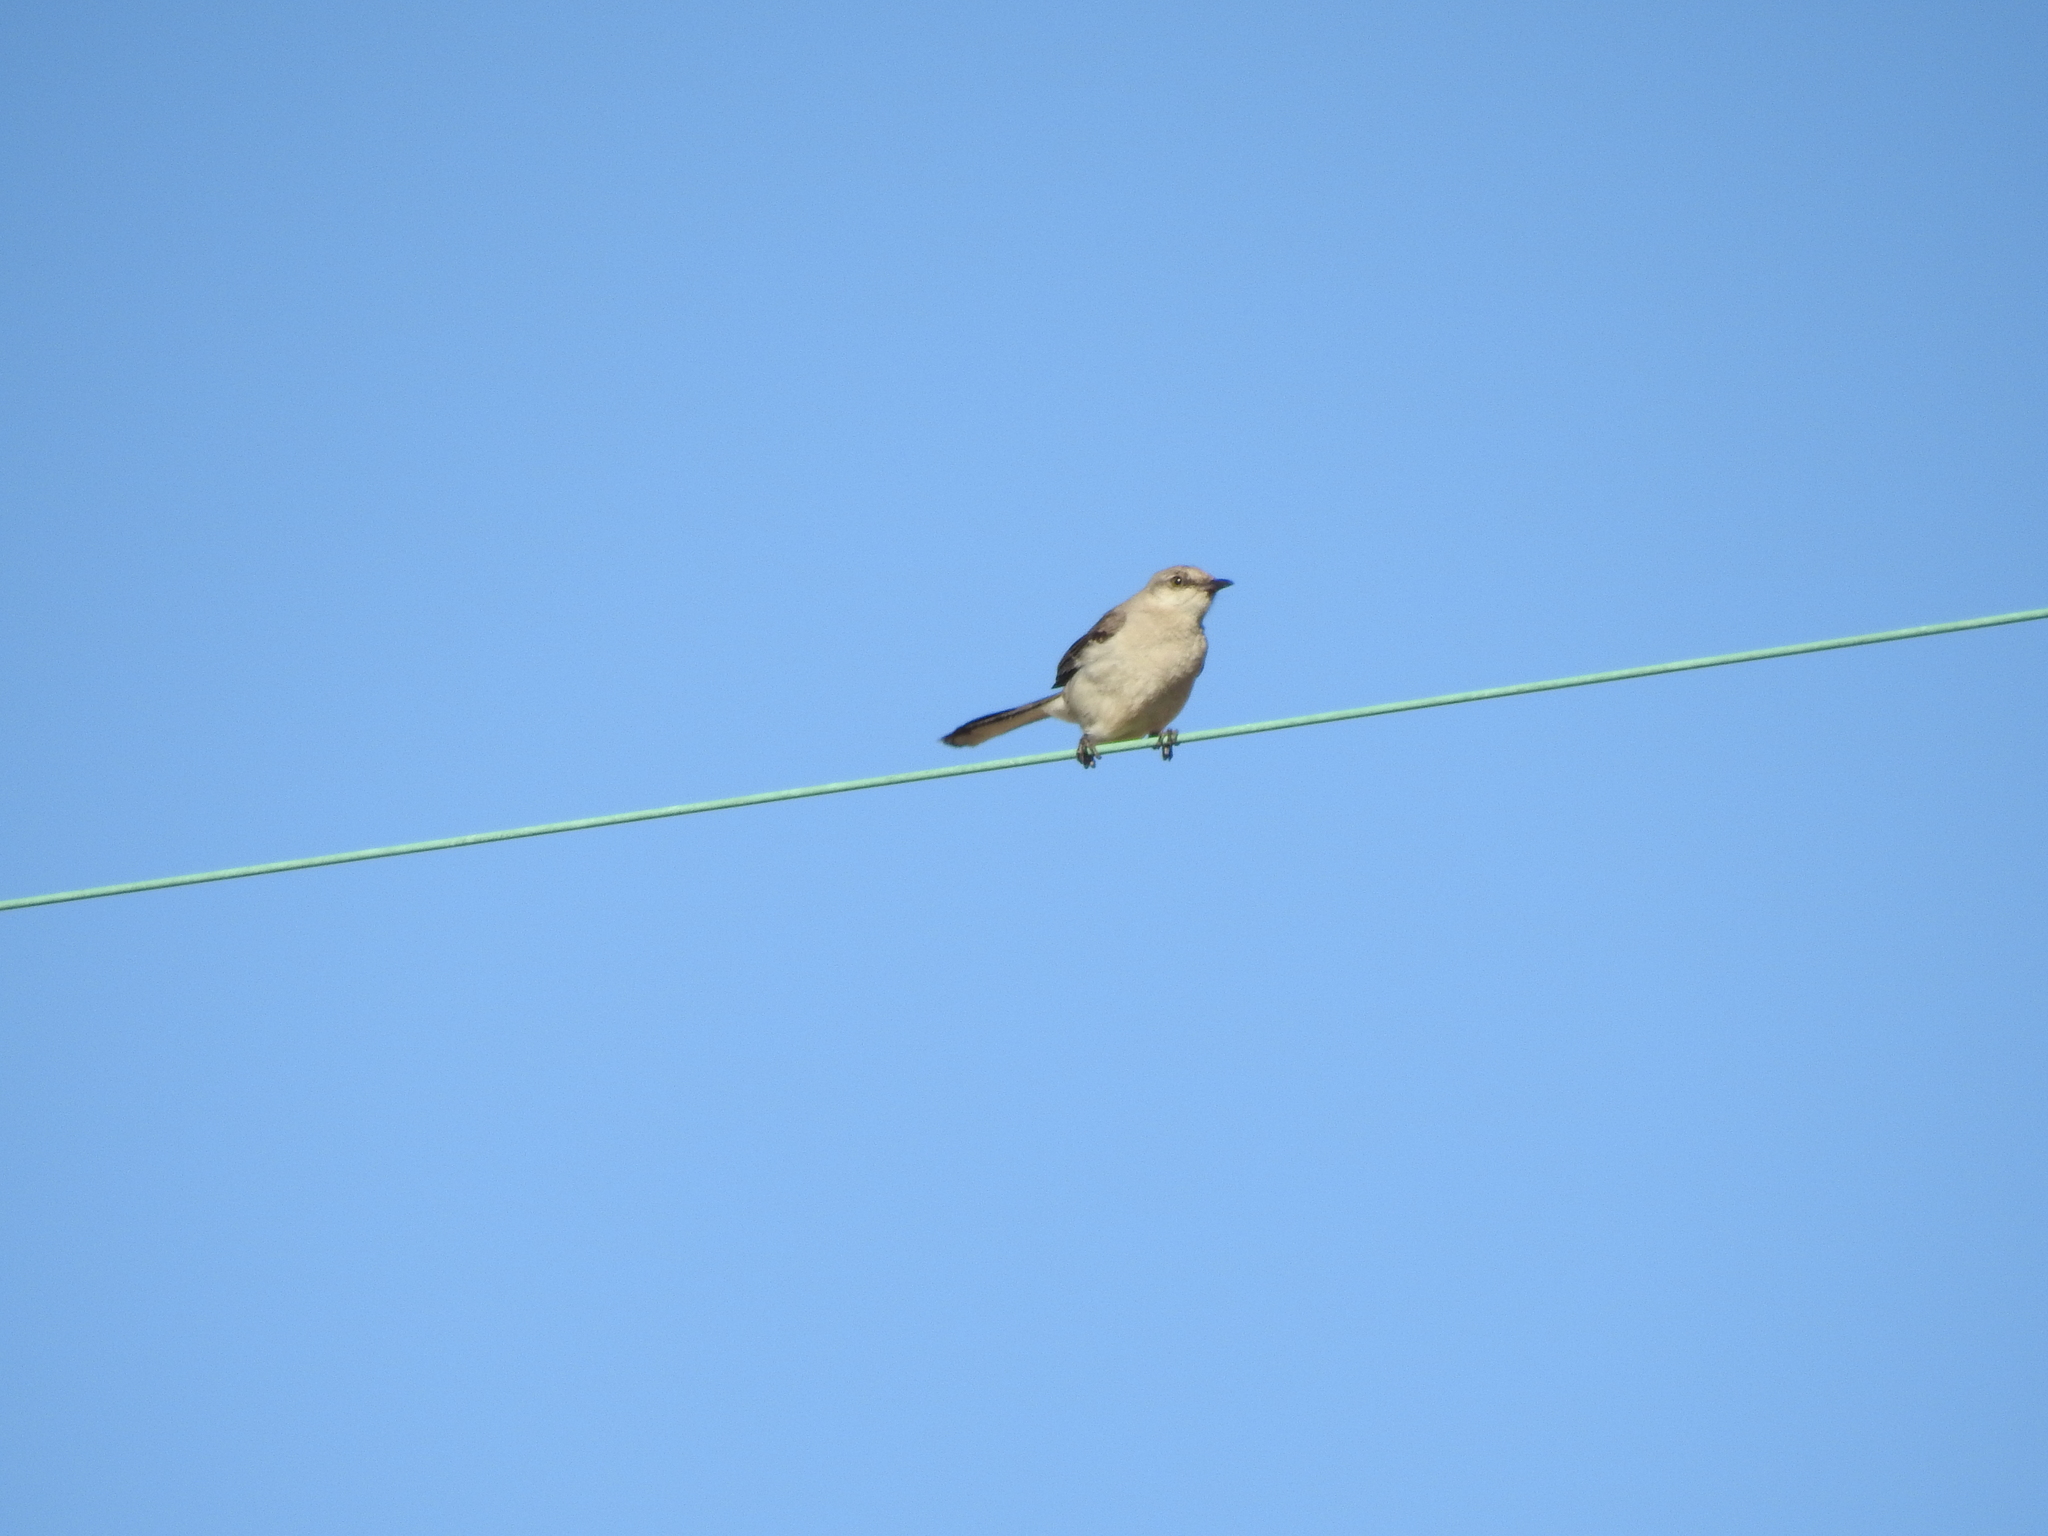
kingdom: Animalia
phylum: Chordata
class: Aves
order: Passeriformes
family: Mimidae
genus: Mimus
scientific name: Mimus polyglottos
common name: Northern mockingbird
